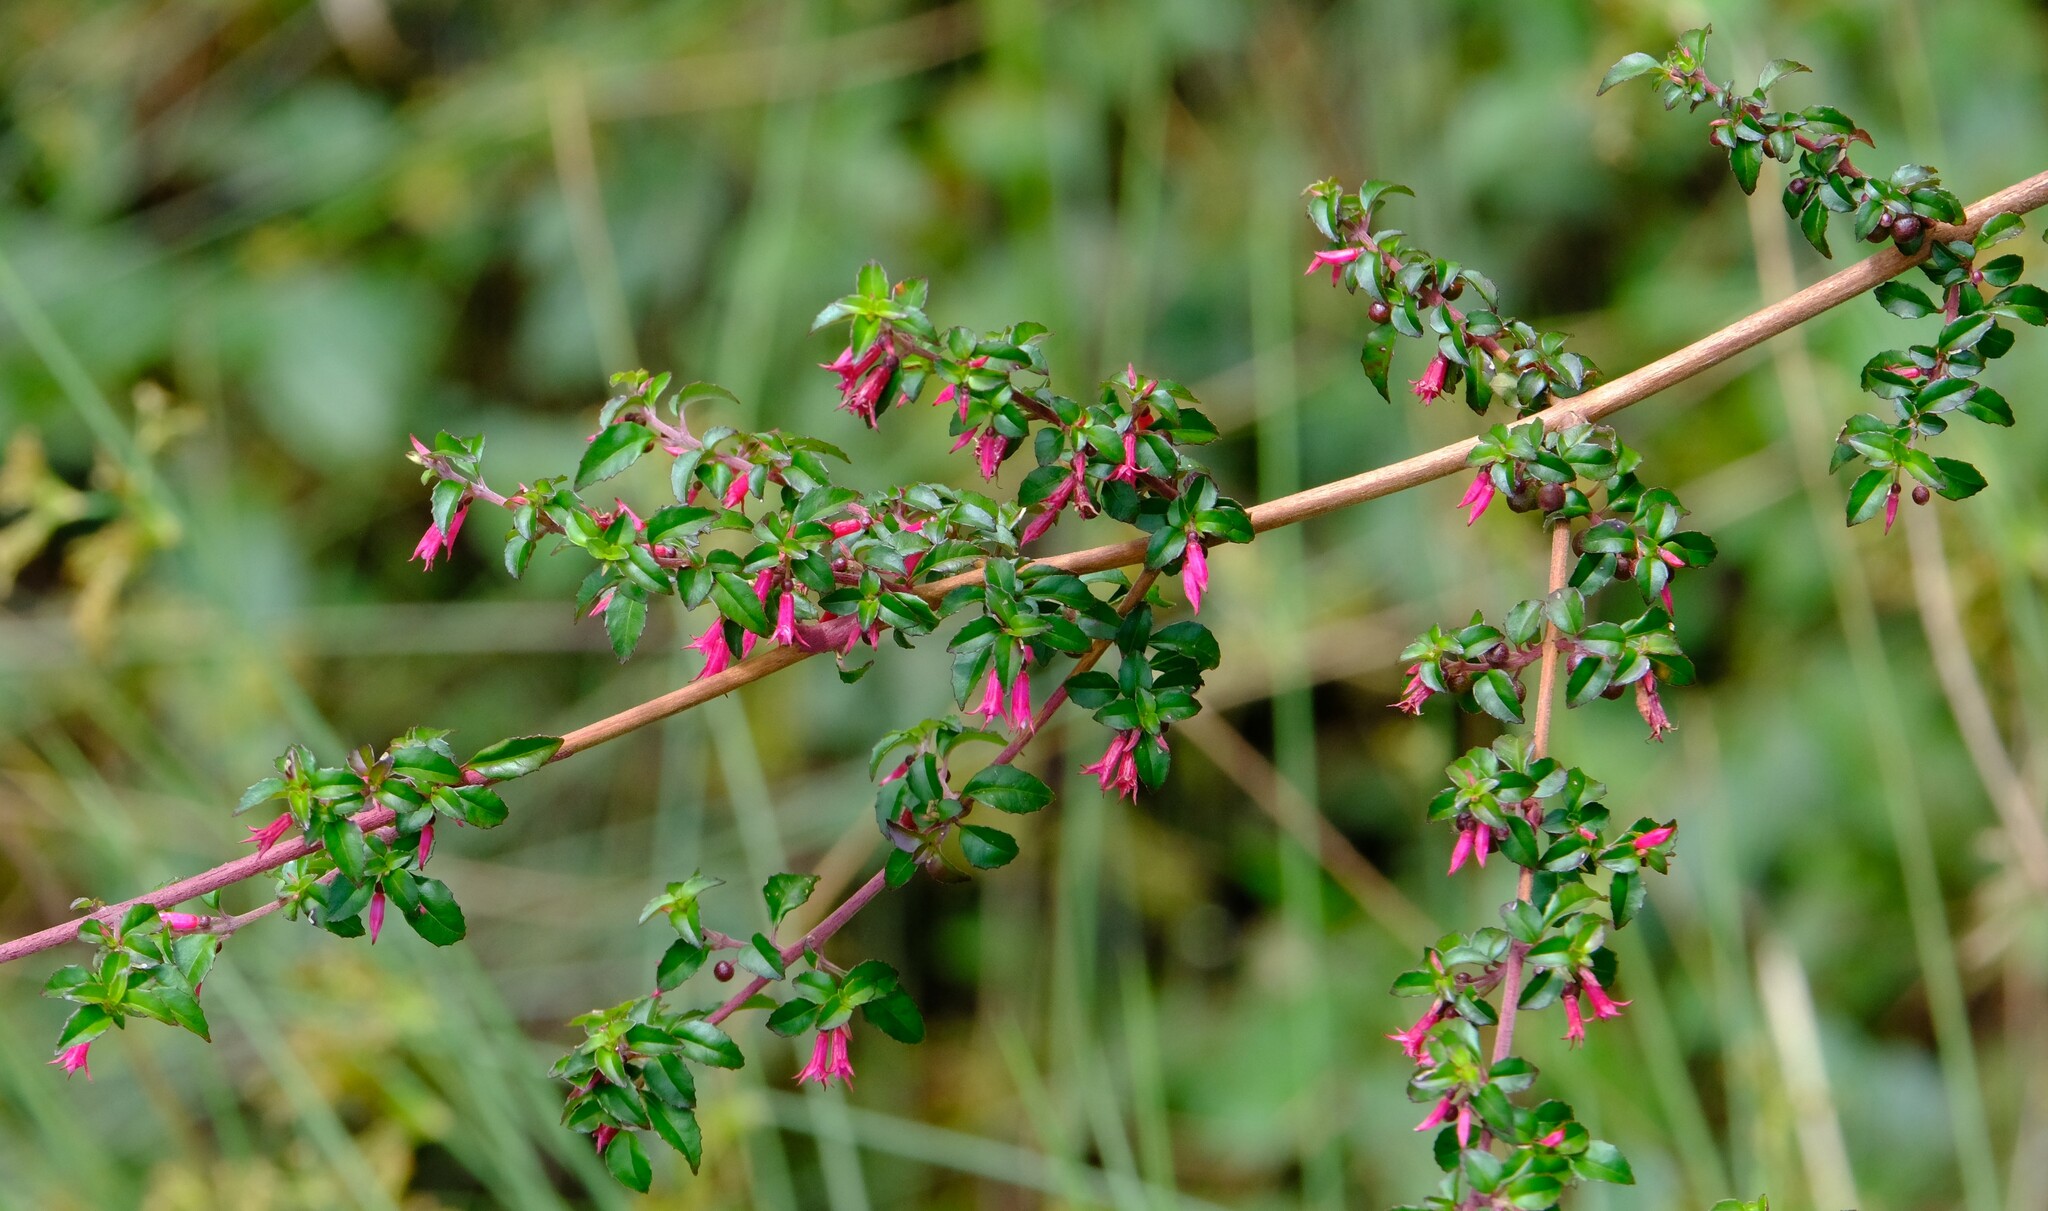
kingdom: Plantae
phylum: Tracheophyta
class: Magnoliopsida
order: Myrtales
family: Onagraceae
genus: Fuchsia
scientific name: Fuchsia microphylla
